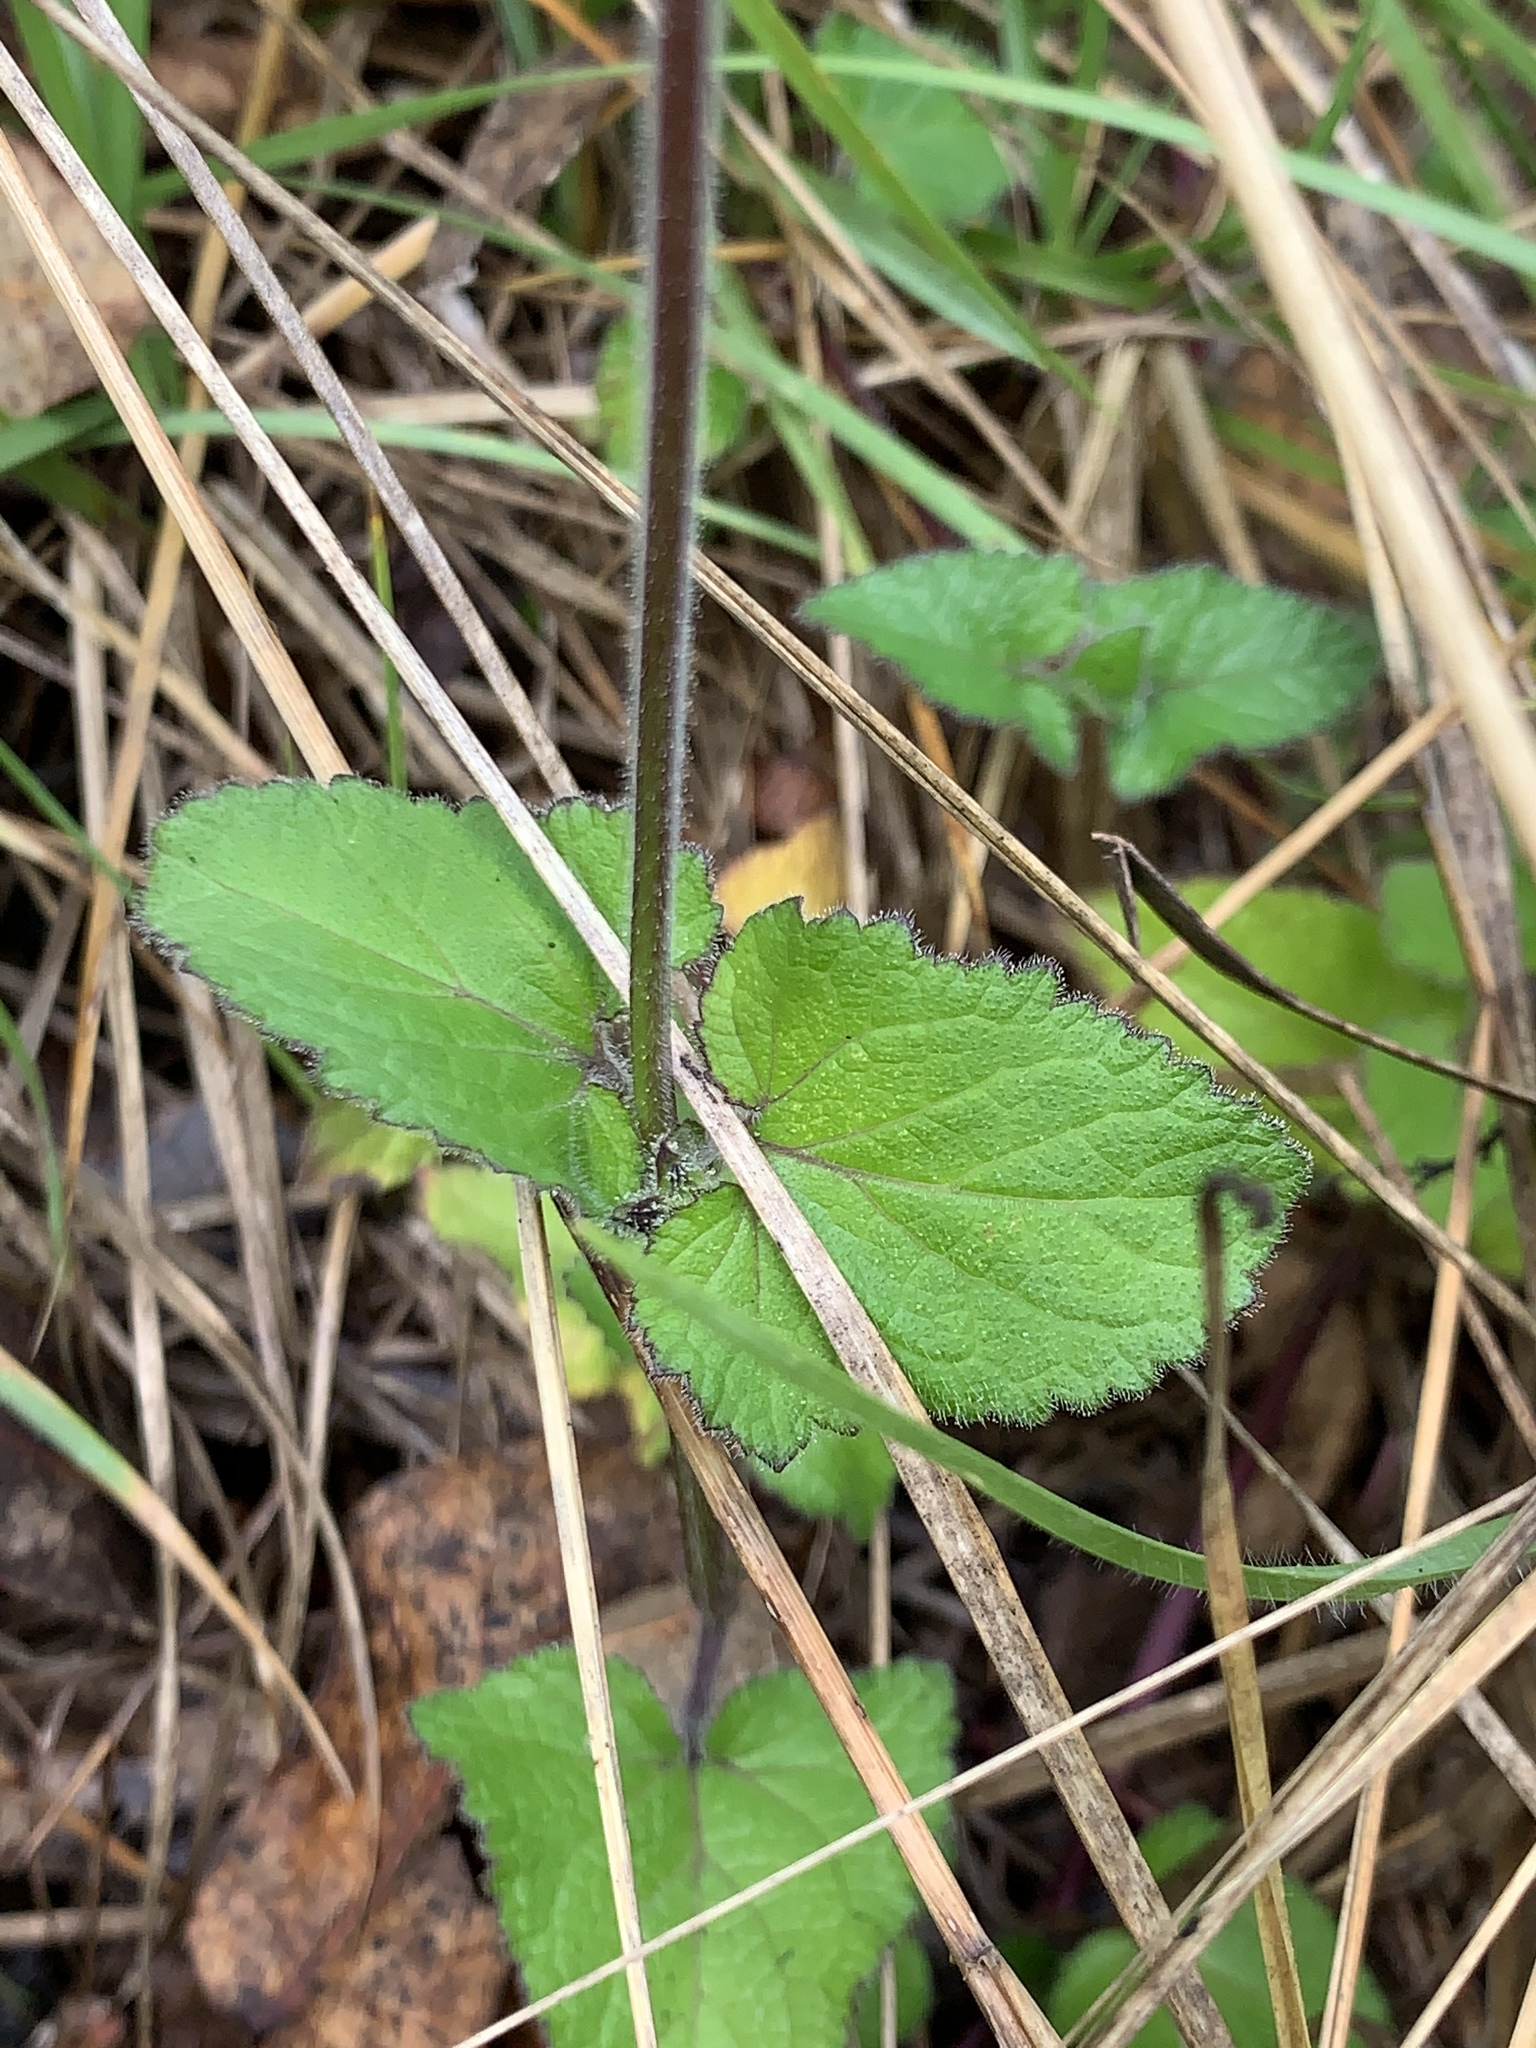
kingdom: Plantae
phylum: Tracheophyta
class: Magnoliopsida
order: Lamiales
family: Lamiaceae
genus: Salvia
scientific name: Salvia scutellarioides
